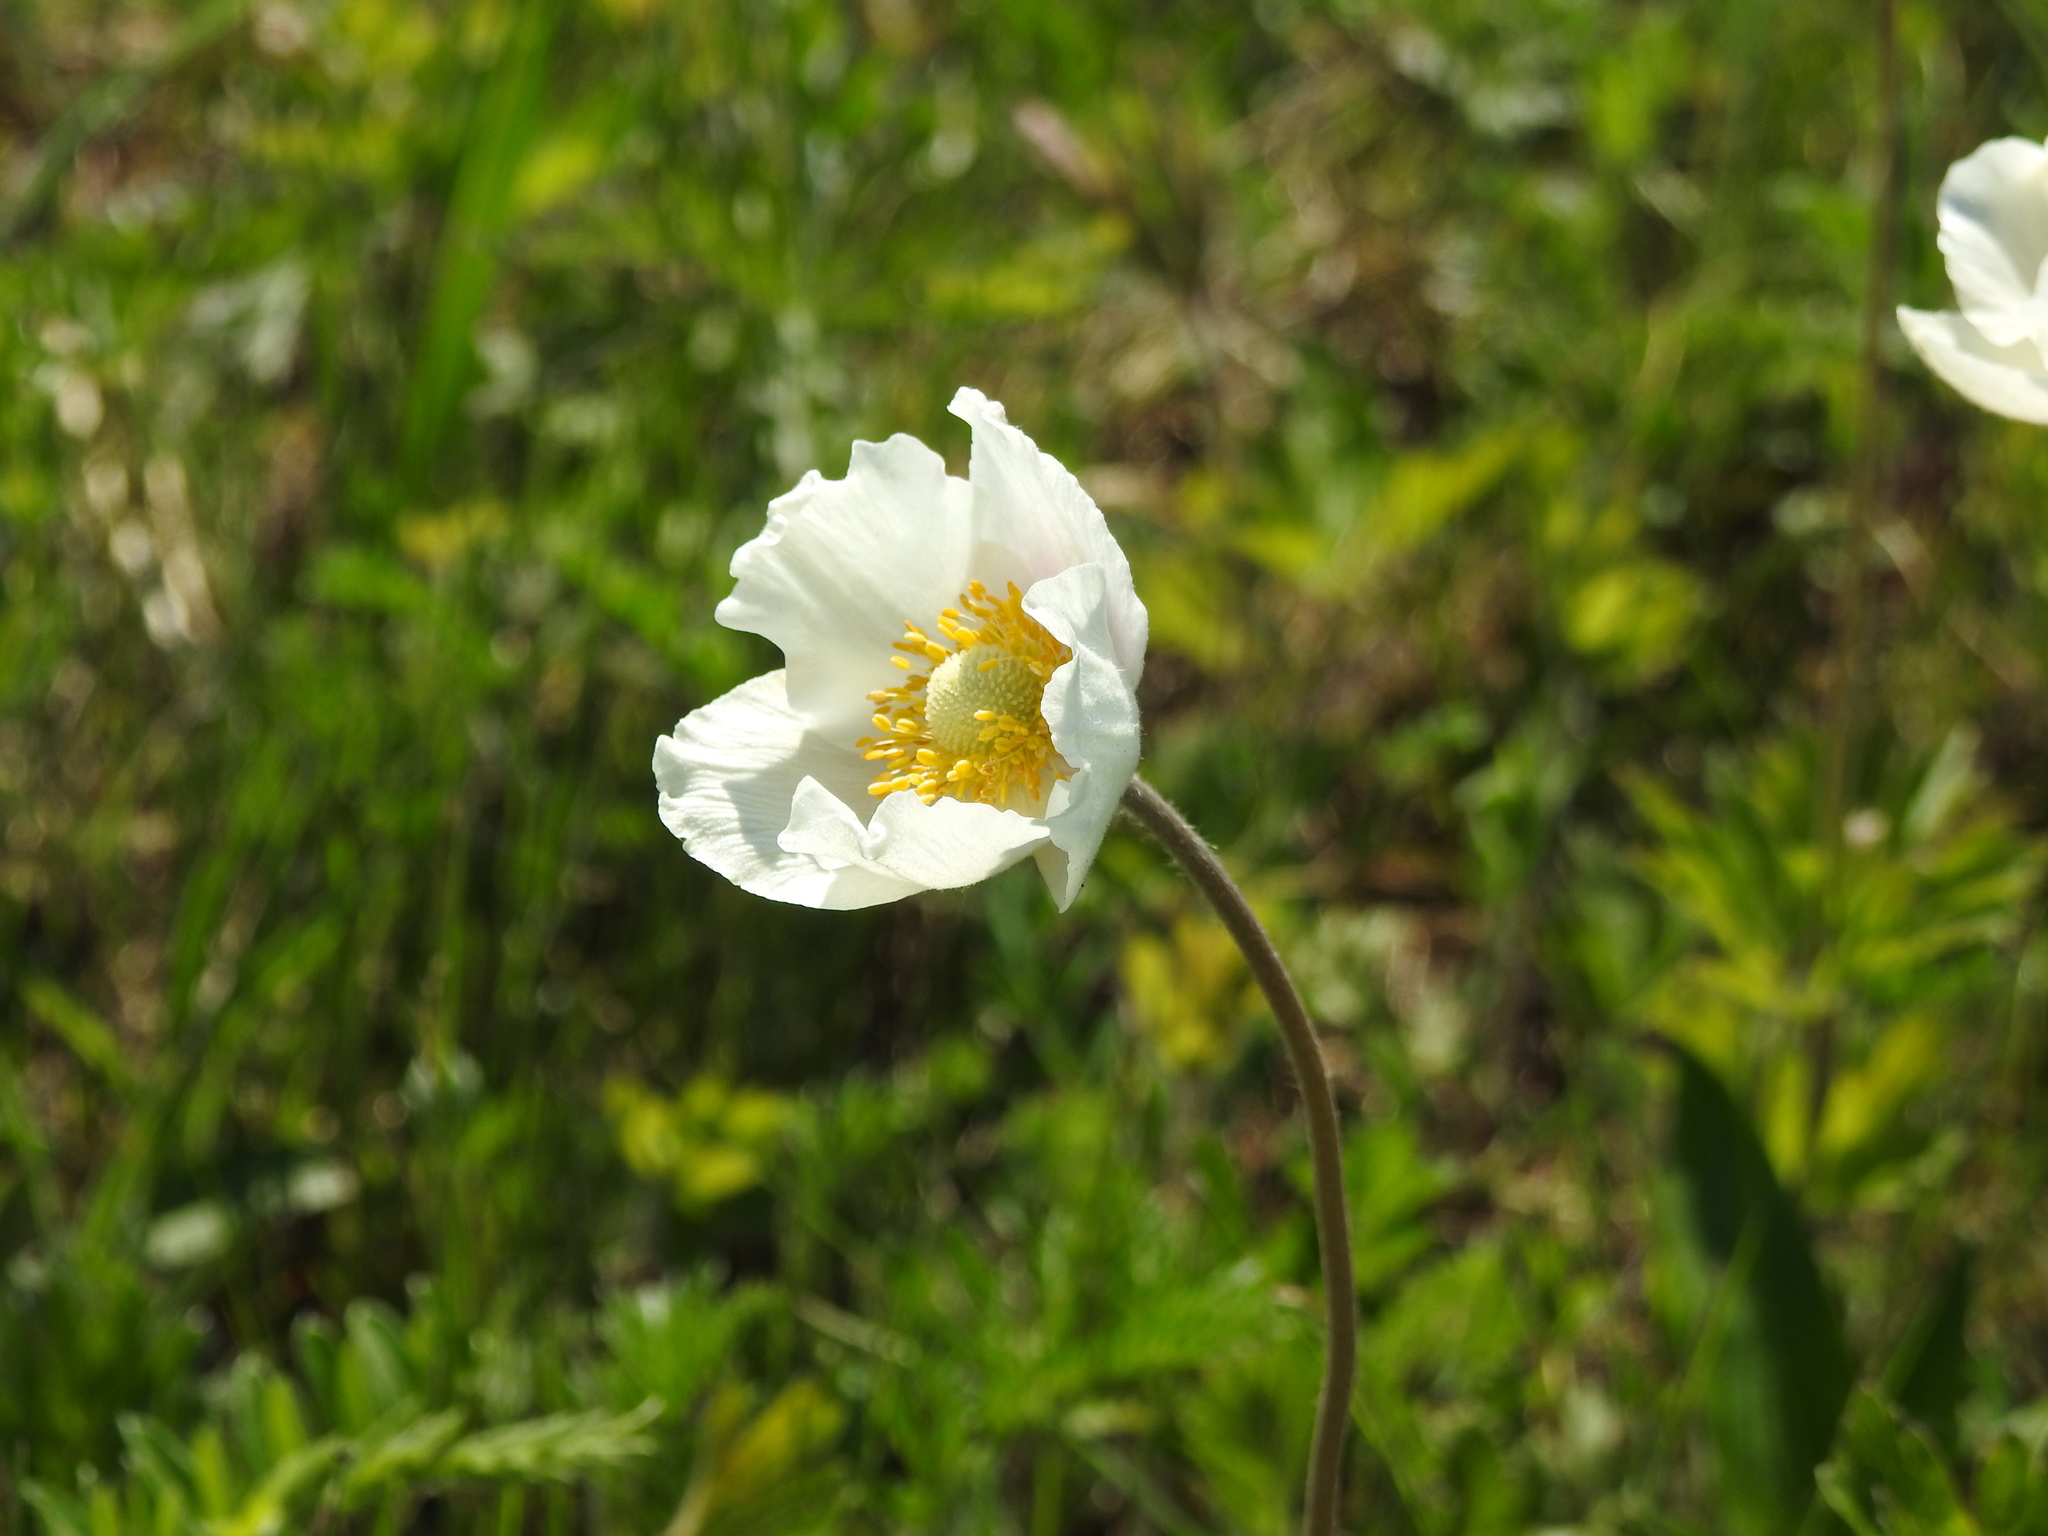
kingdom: Plantae
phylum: Tracheophyta
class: Magnoliopsida
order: Ranunculales
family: Ranunculaceae
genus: Anemone
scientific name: Anemone sylvestris
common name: Snowdrop anemone
